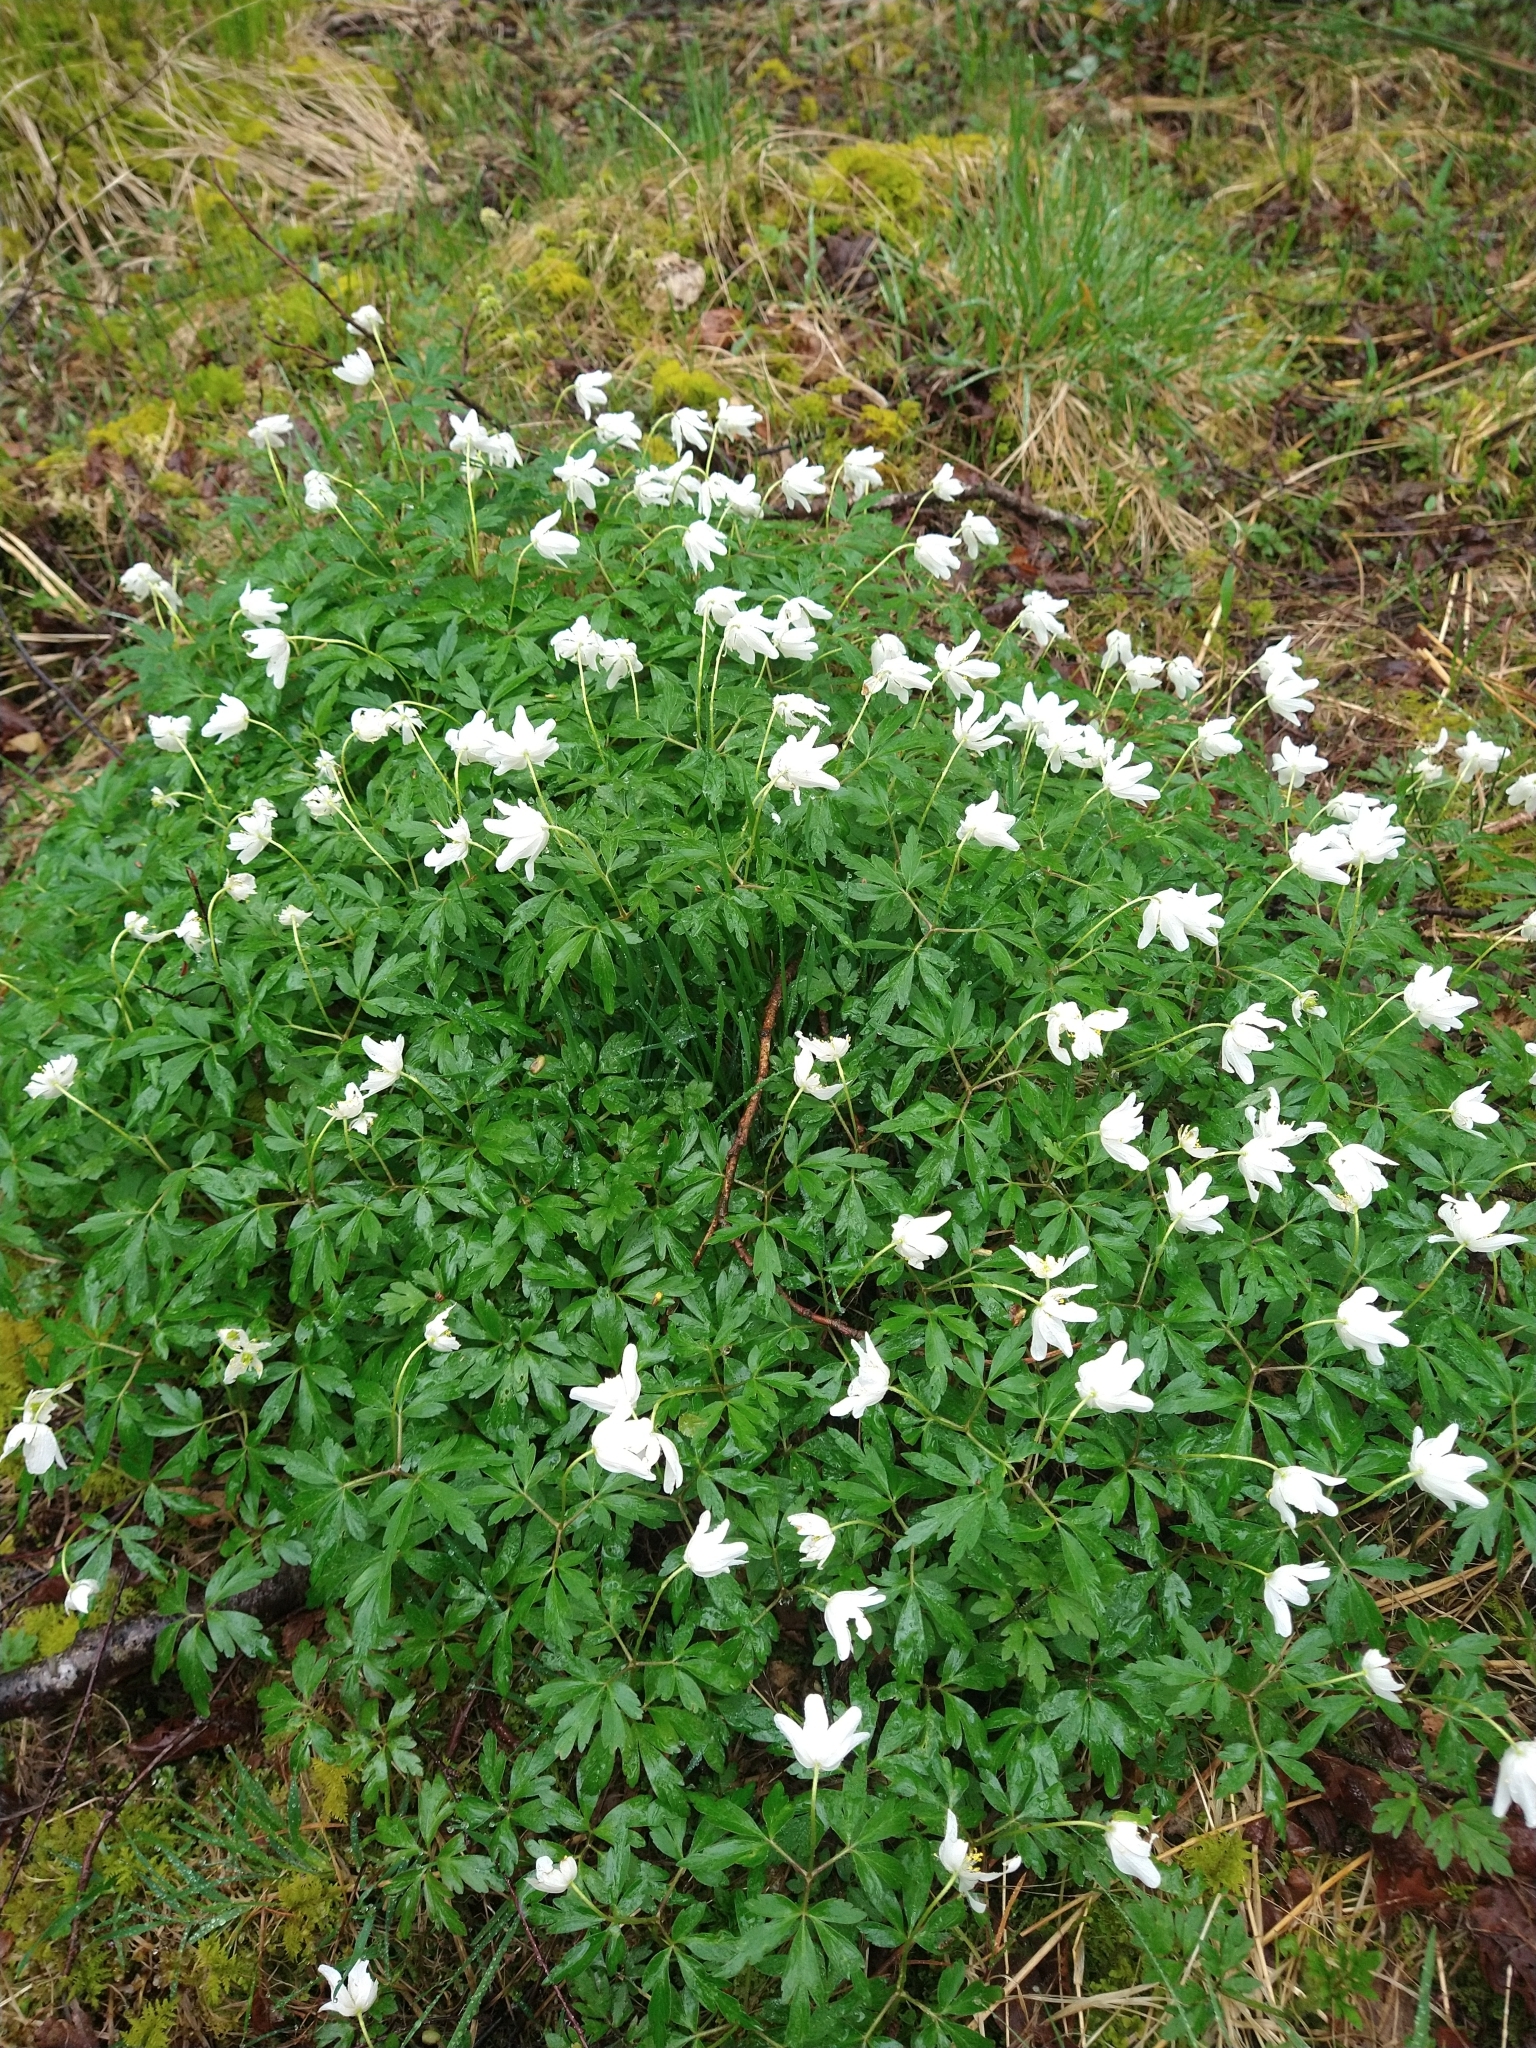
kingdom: Plantae
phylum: Tracheophyta
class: Magnoliopsida
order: Ranunculales
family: Ranunculaceae
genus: Anemone
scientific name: Anemone nemorosa
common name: Wood anemone
